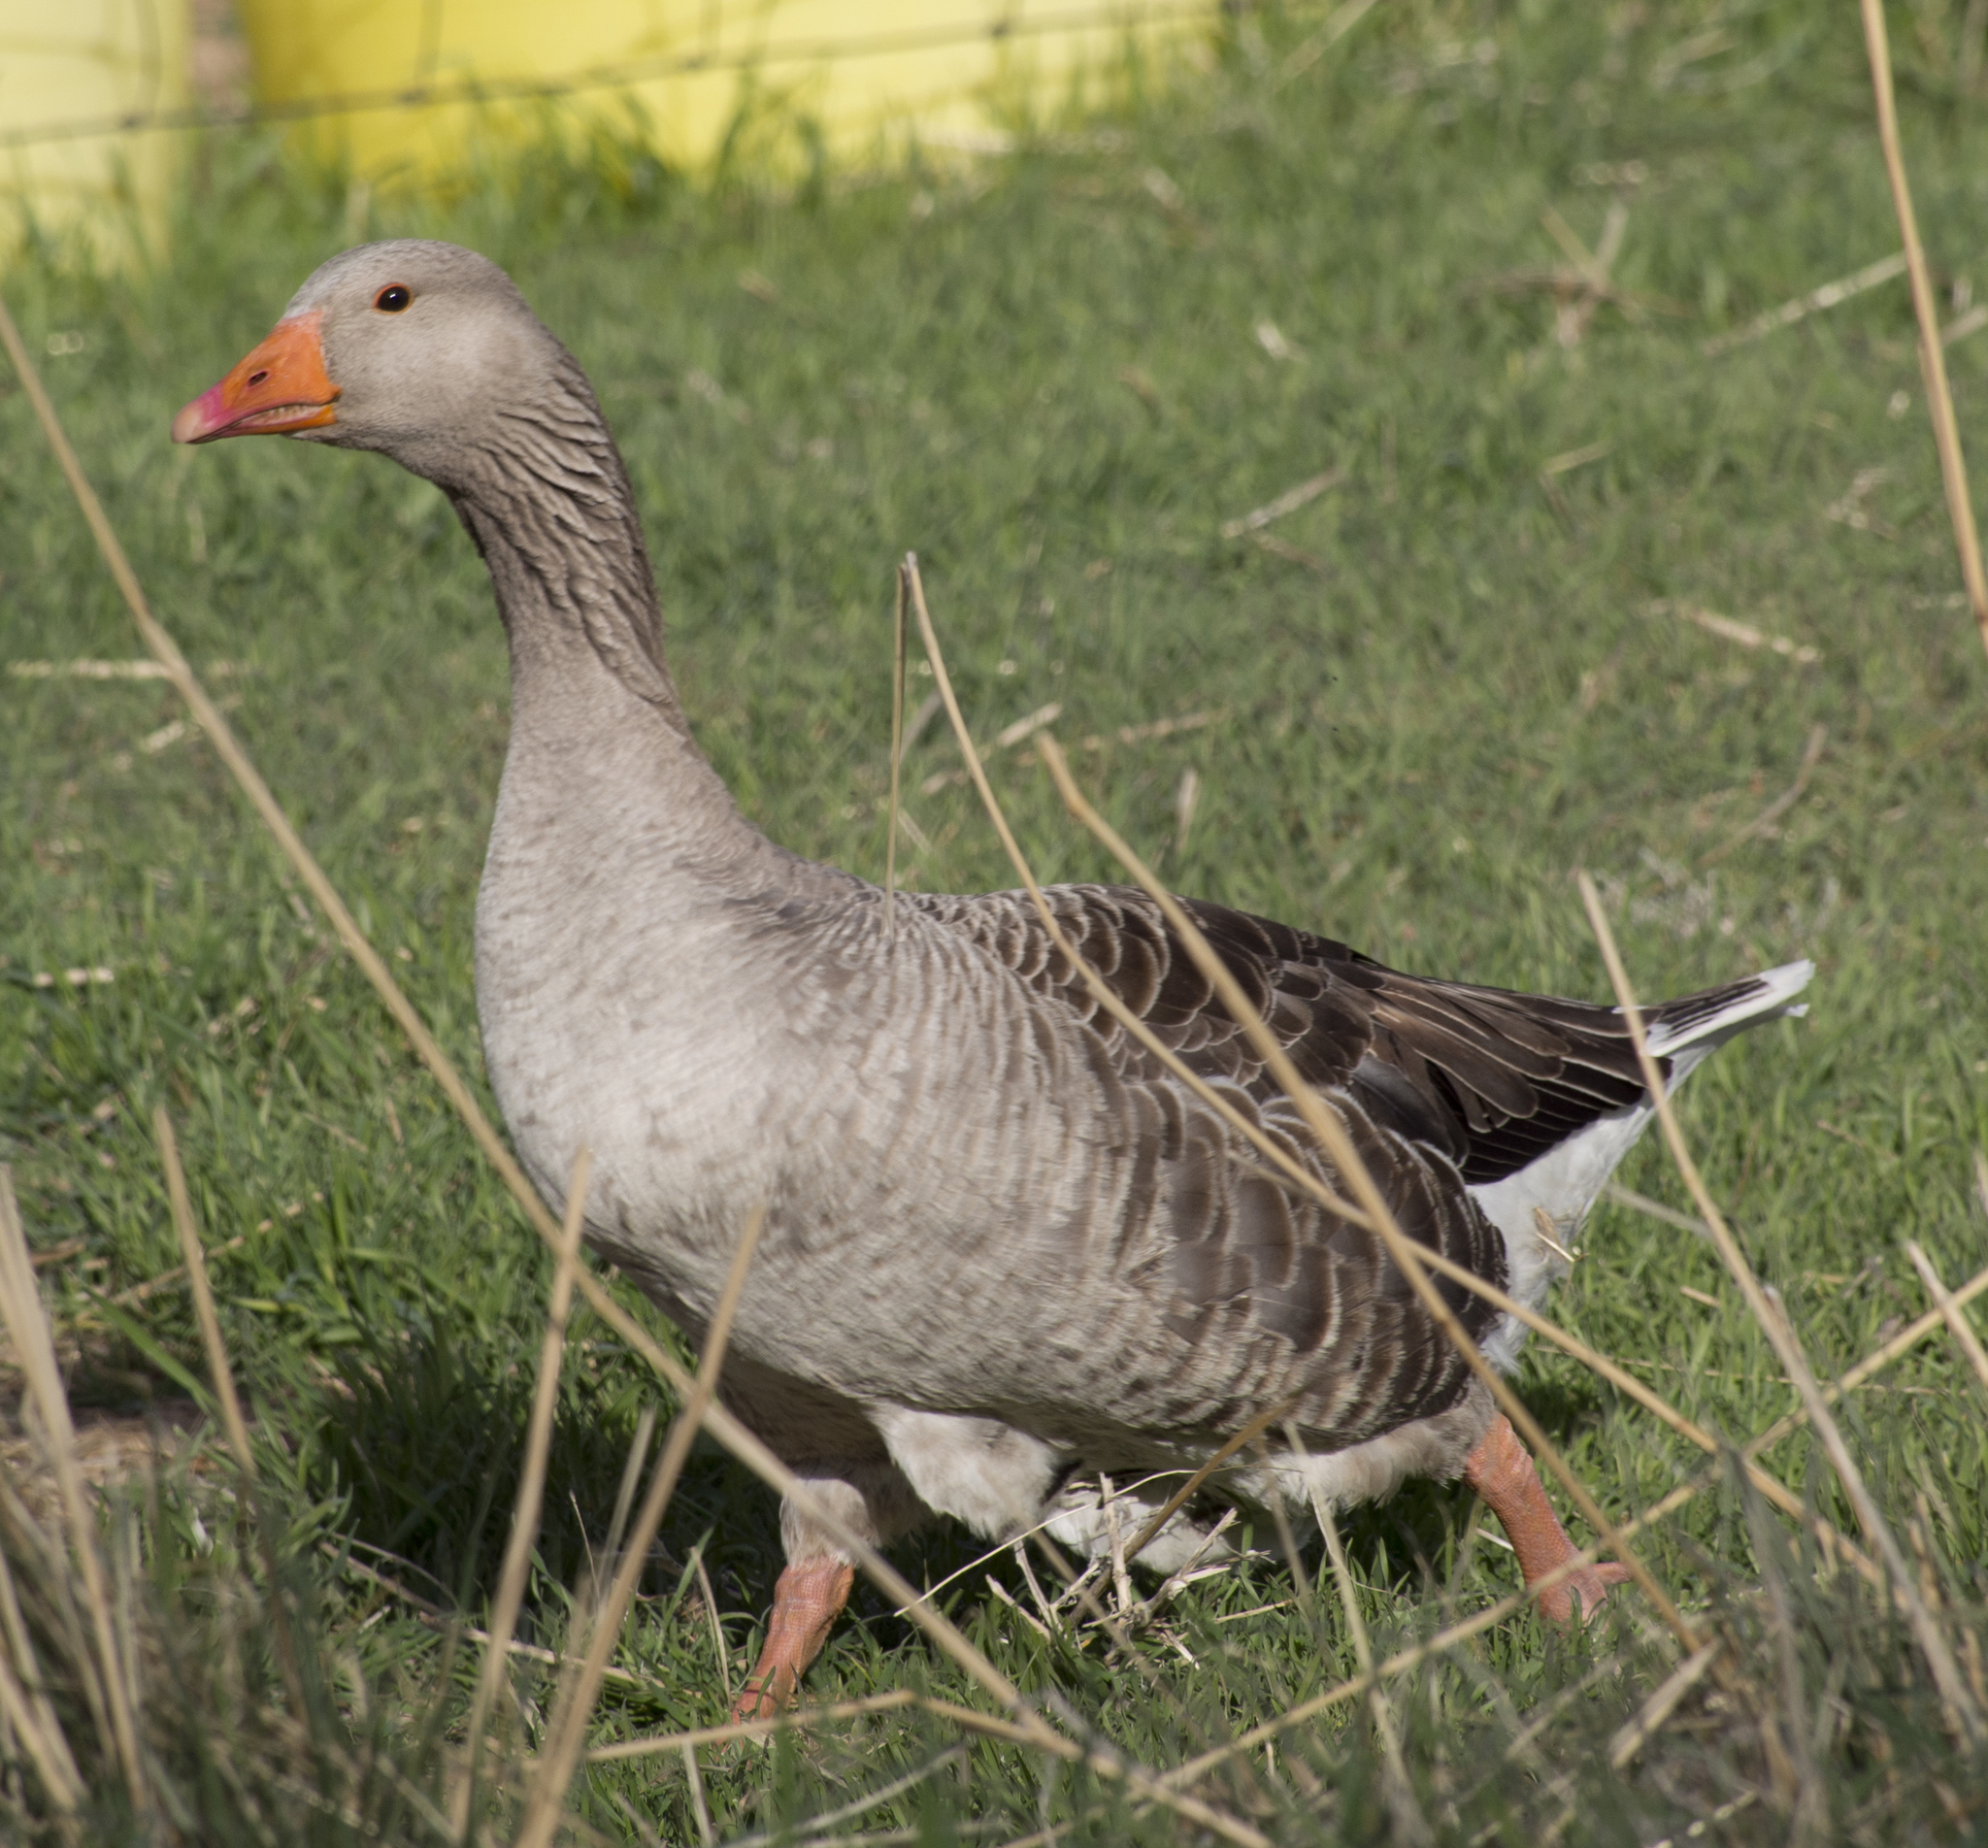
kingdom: Animalia
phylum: Chordata
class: Aves
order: Anseriformes
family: Anatidae
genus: Anser
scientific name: Anser anser
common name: Greylag goose
